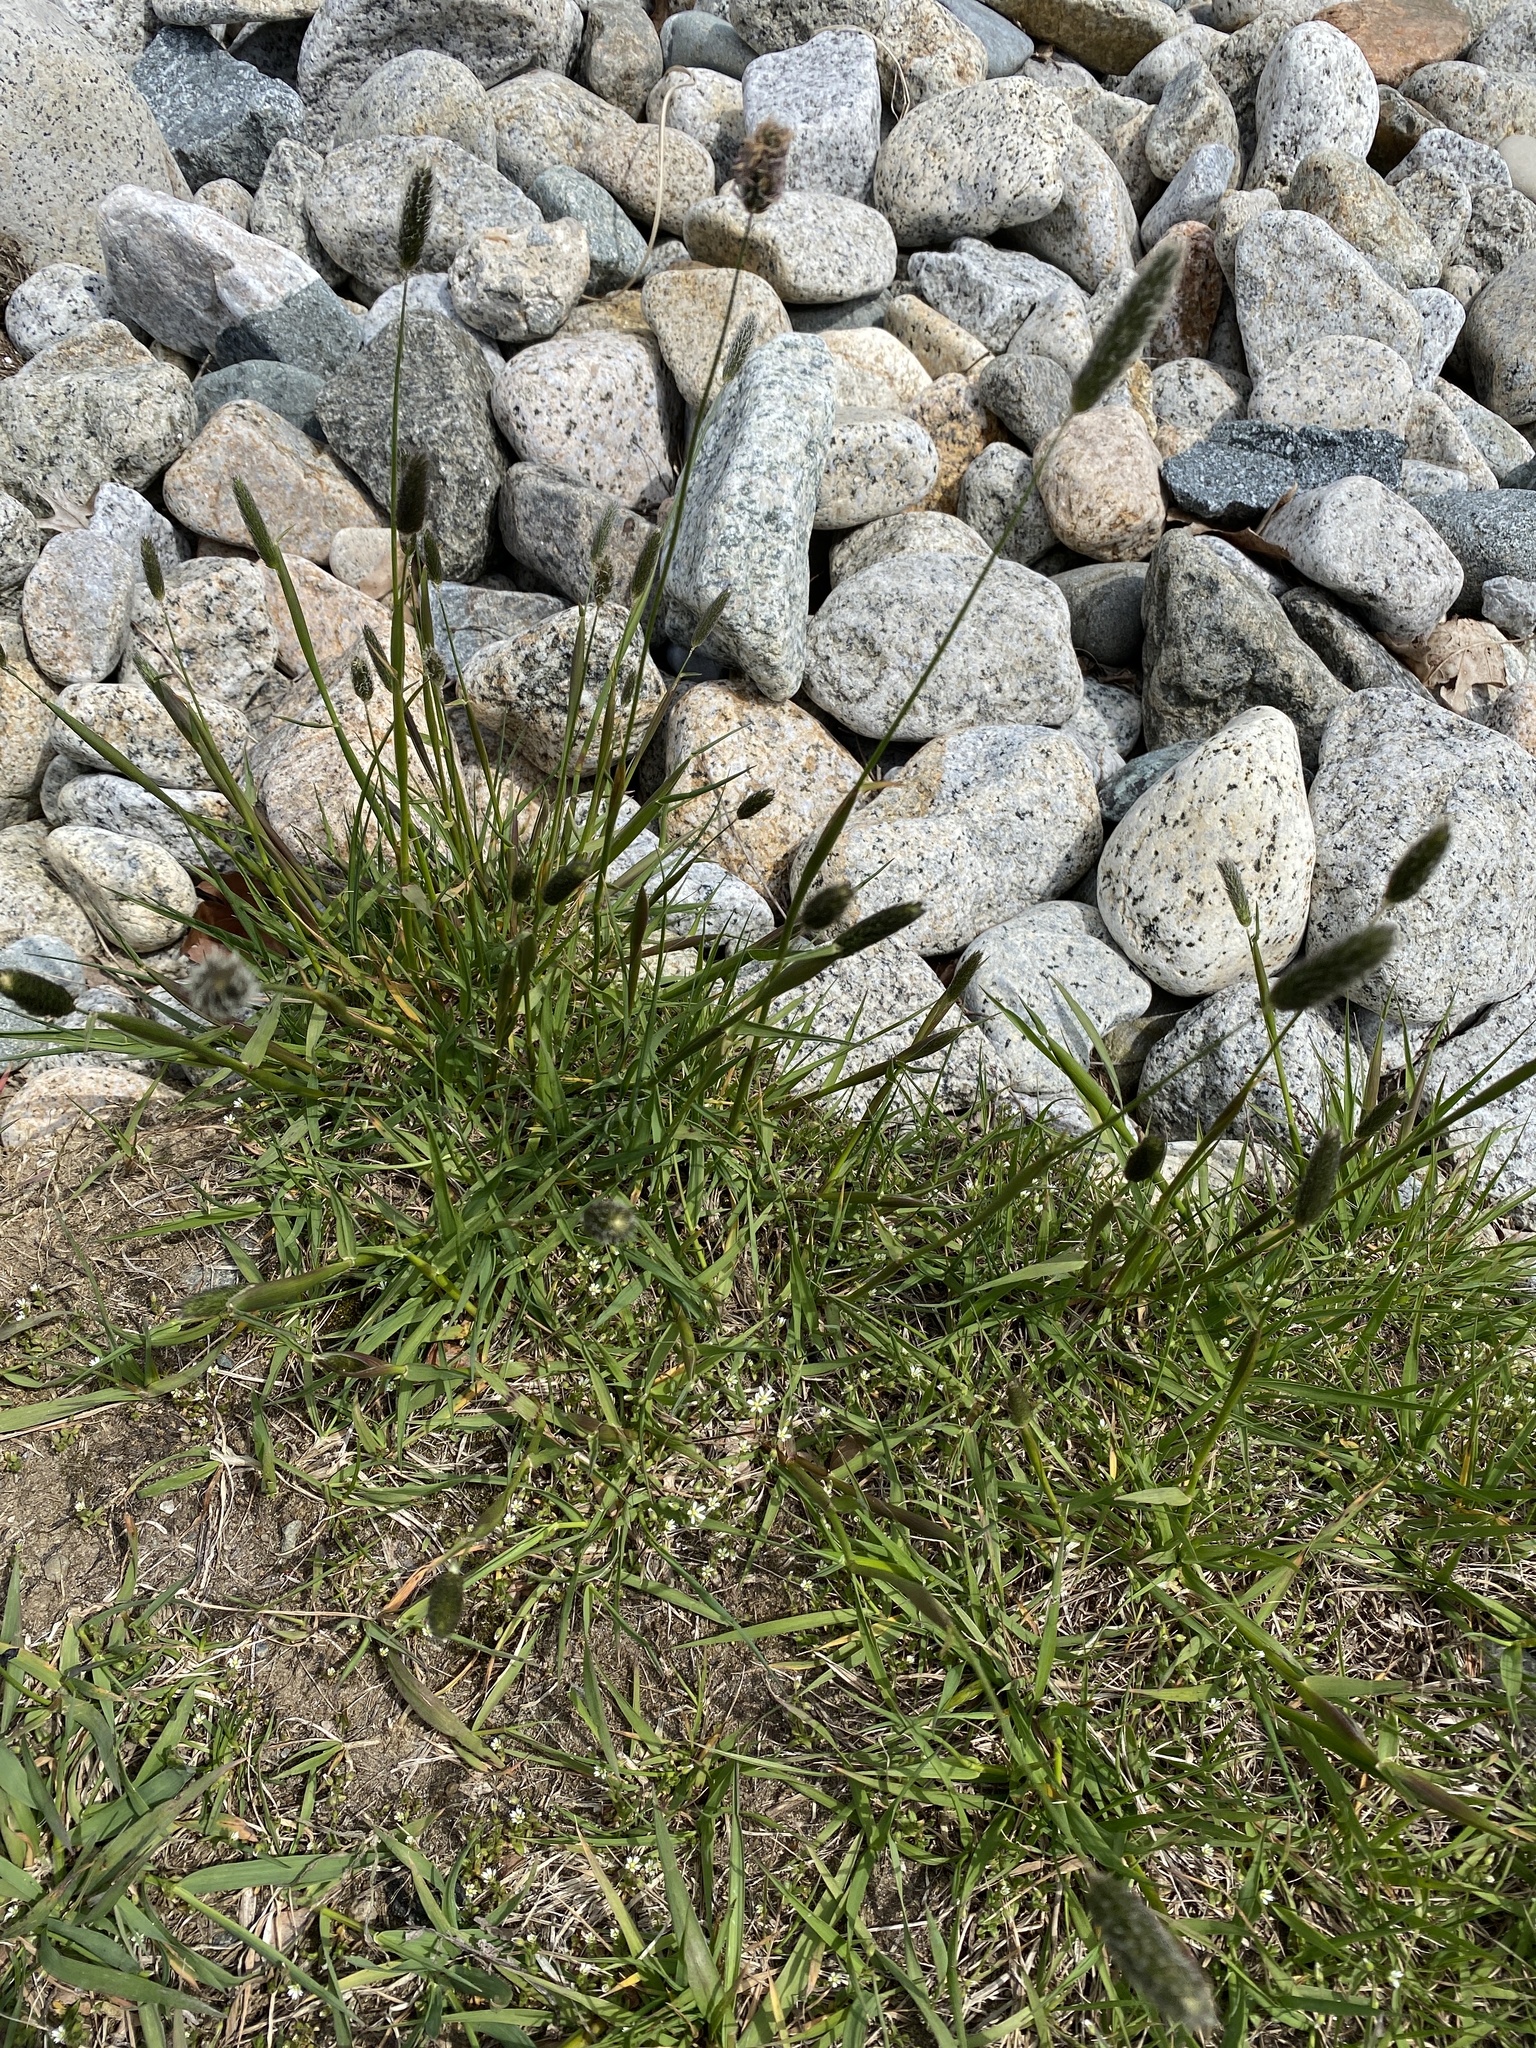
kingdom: Plantae
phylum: Tracheophyta
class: Liliopsida
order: Poales
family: Poaceae
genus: Alopecurus
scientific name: Alopecurus pratensis
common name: Meadow foxtail
